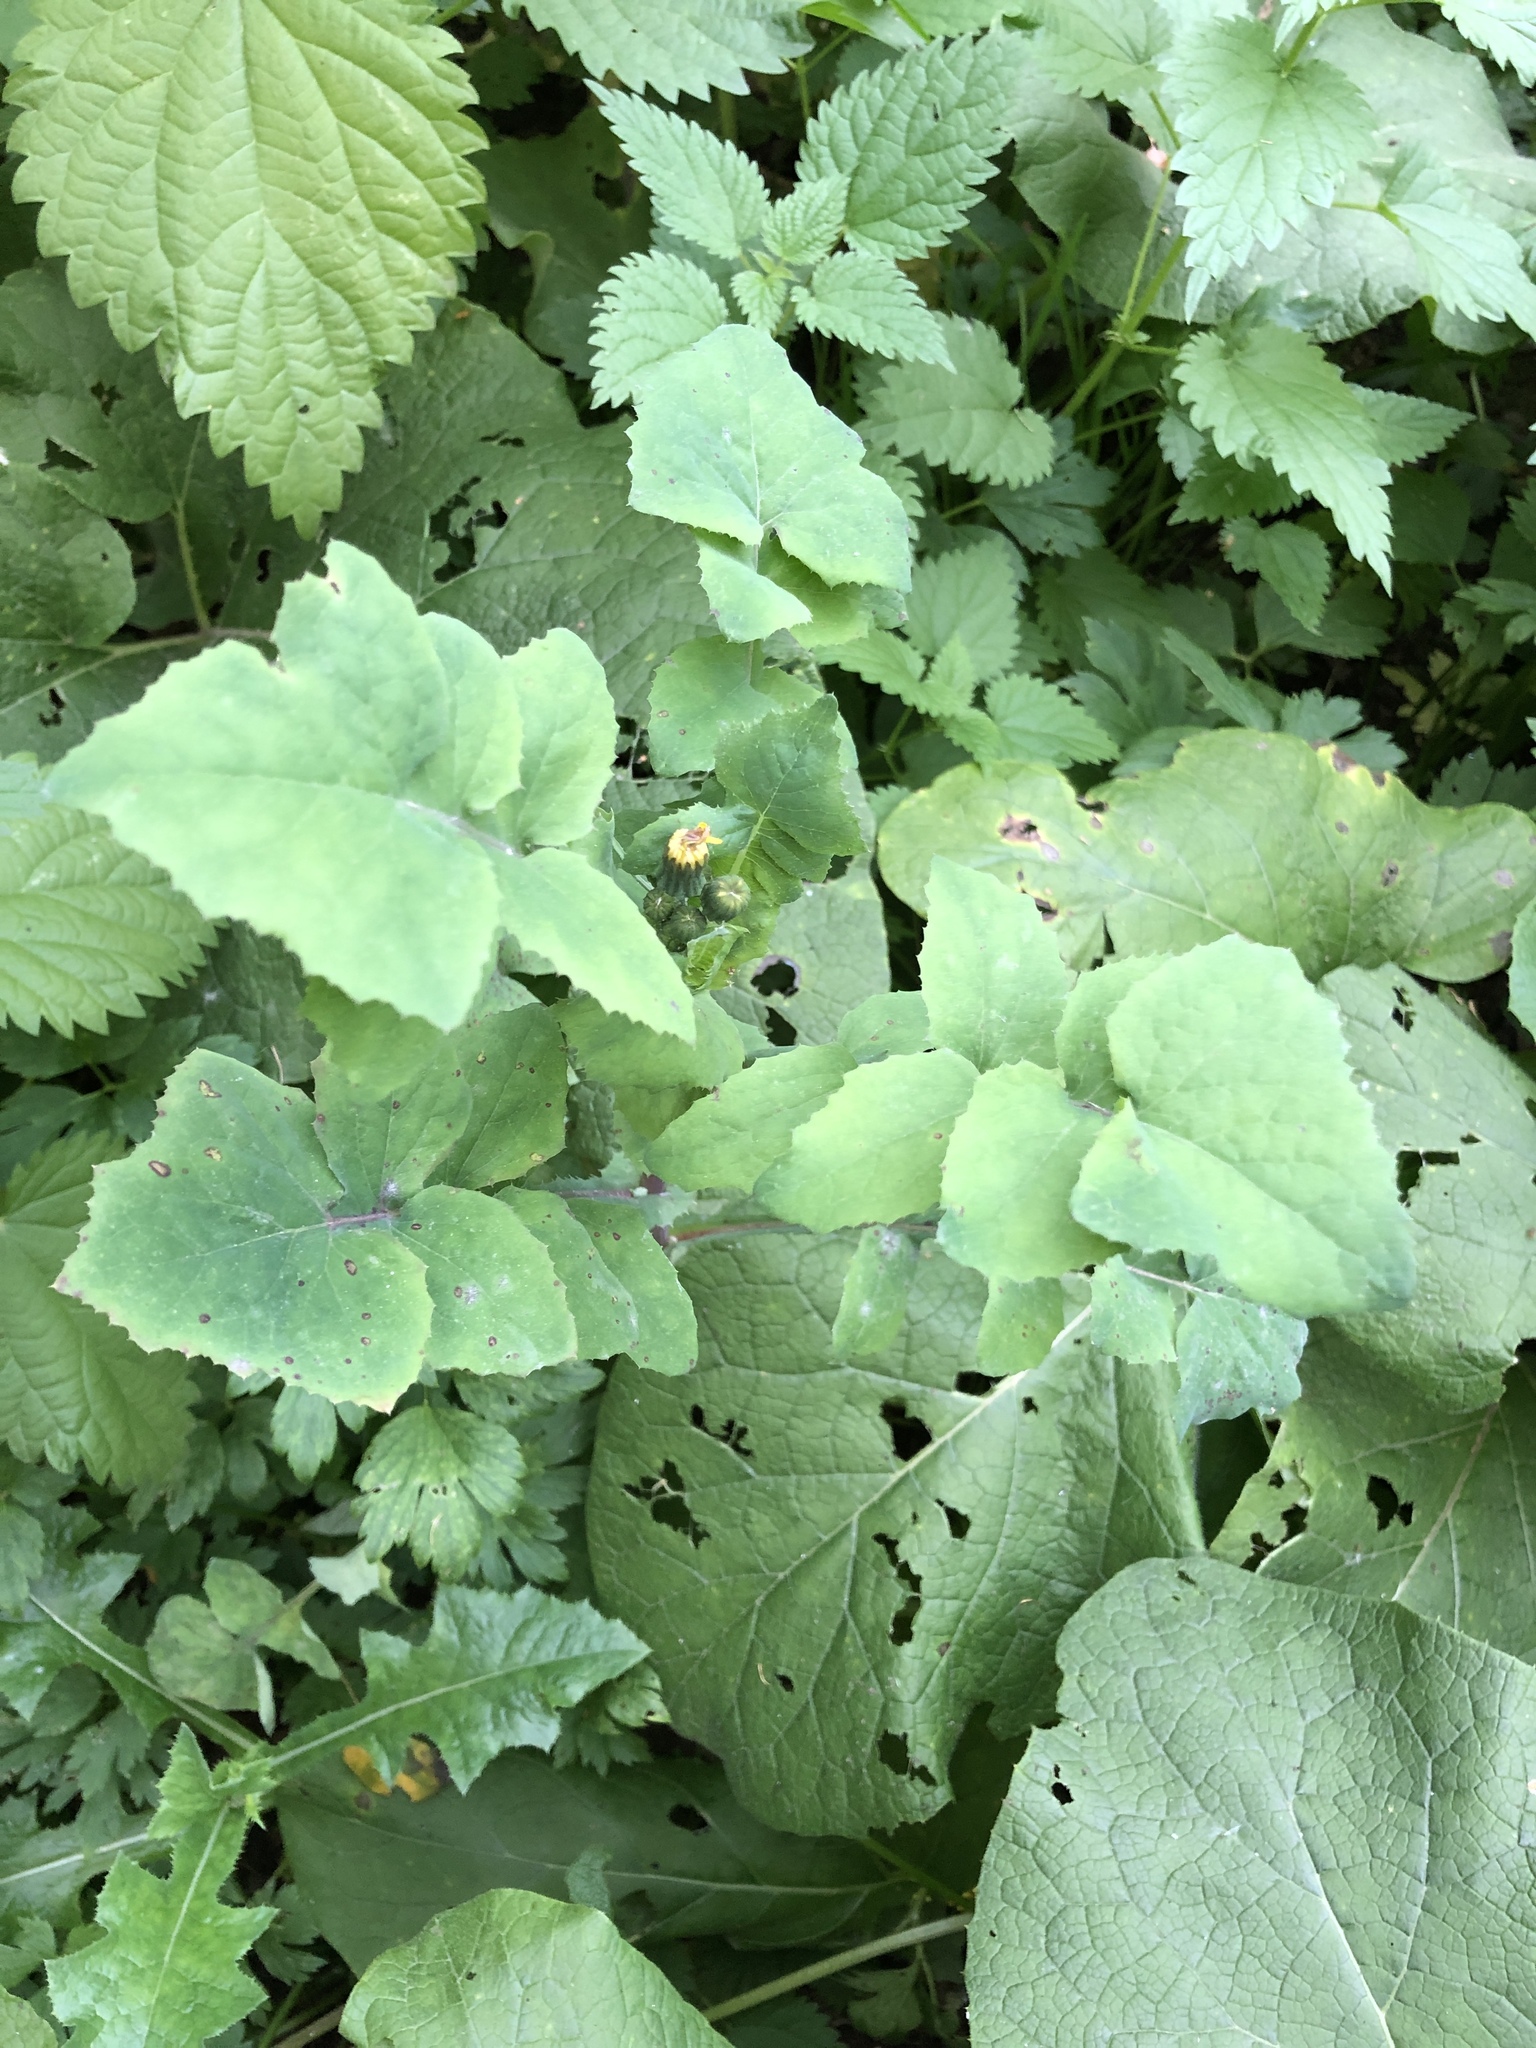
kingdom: Plantae
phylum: Tracheophyta
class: Magnoliopsida
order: Asterales
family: Asteraceae
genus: Sonchus
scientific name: Sonchus oleraceus
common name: Common sowthistle
